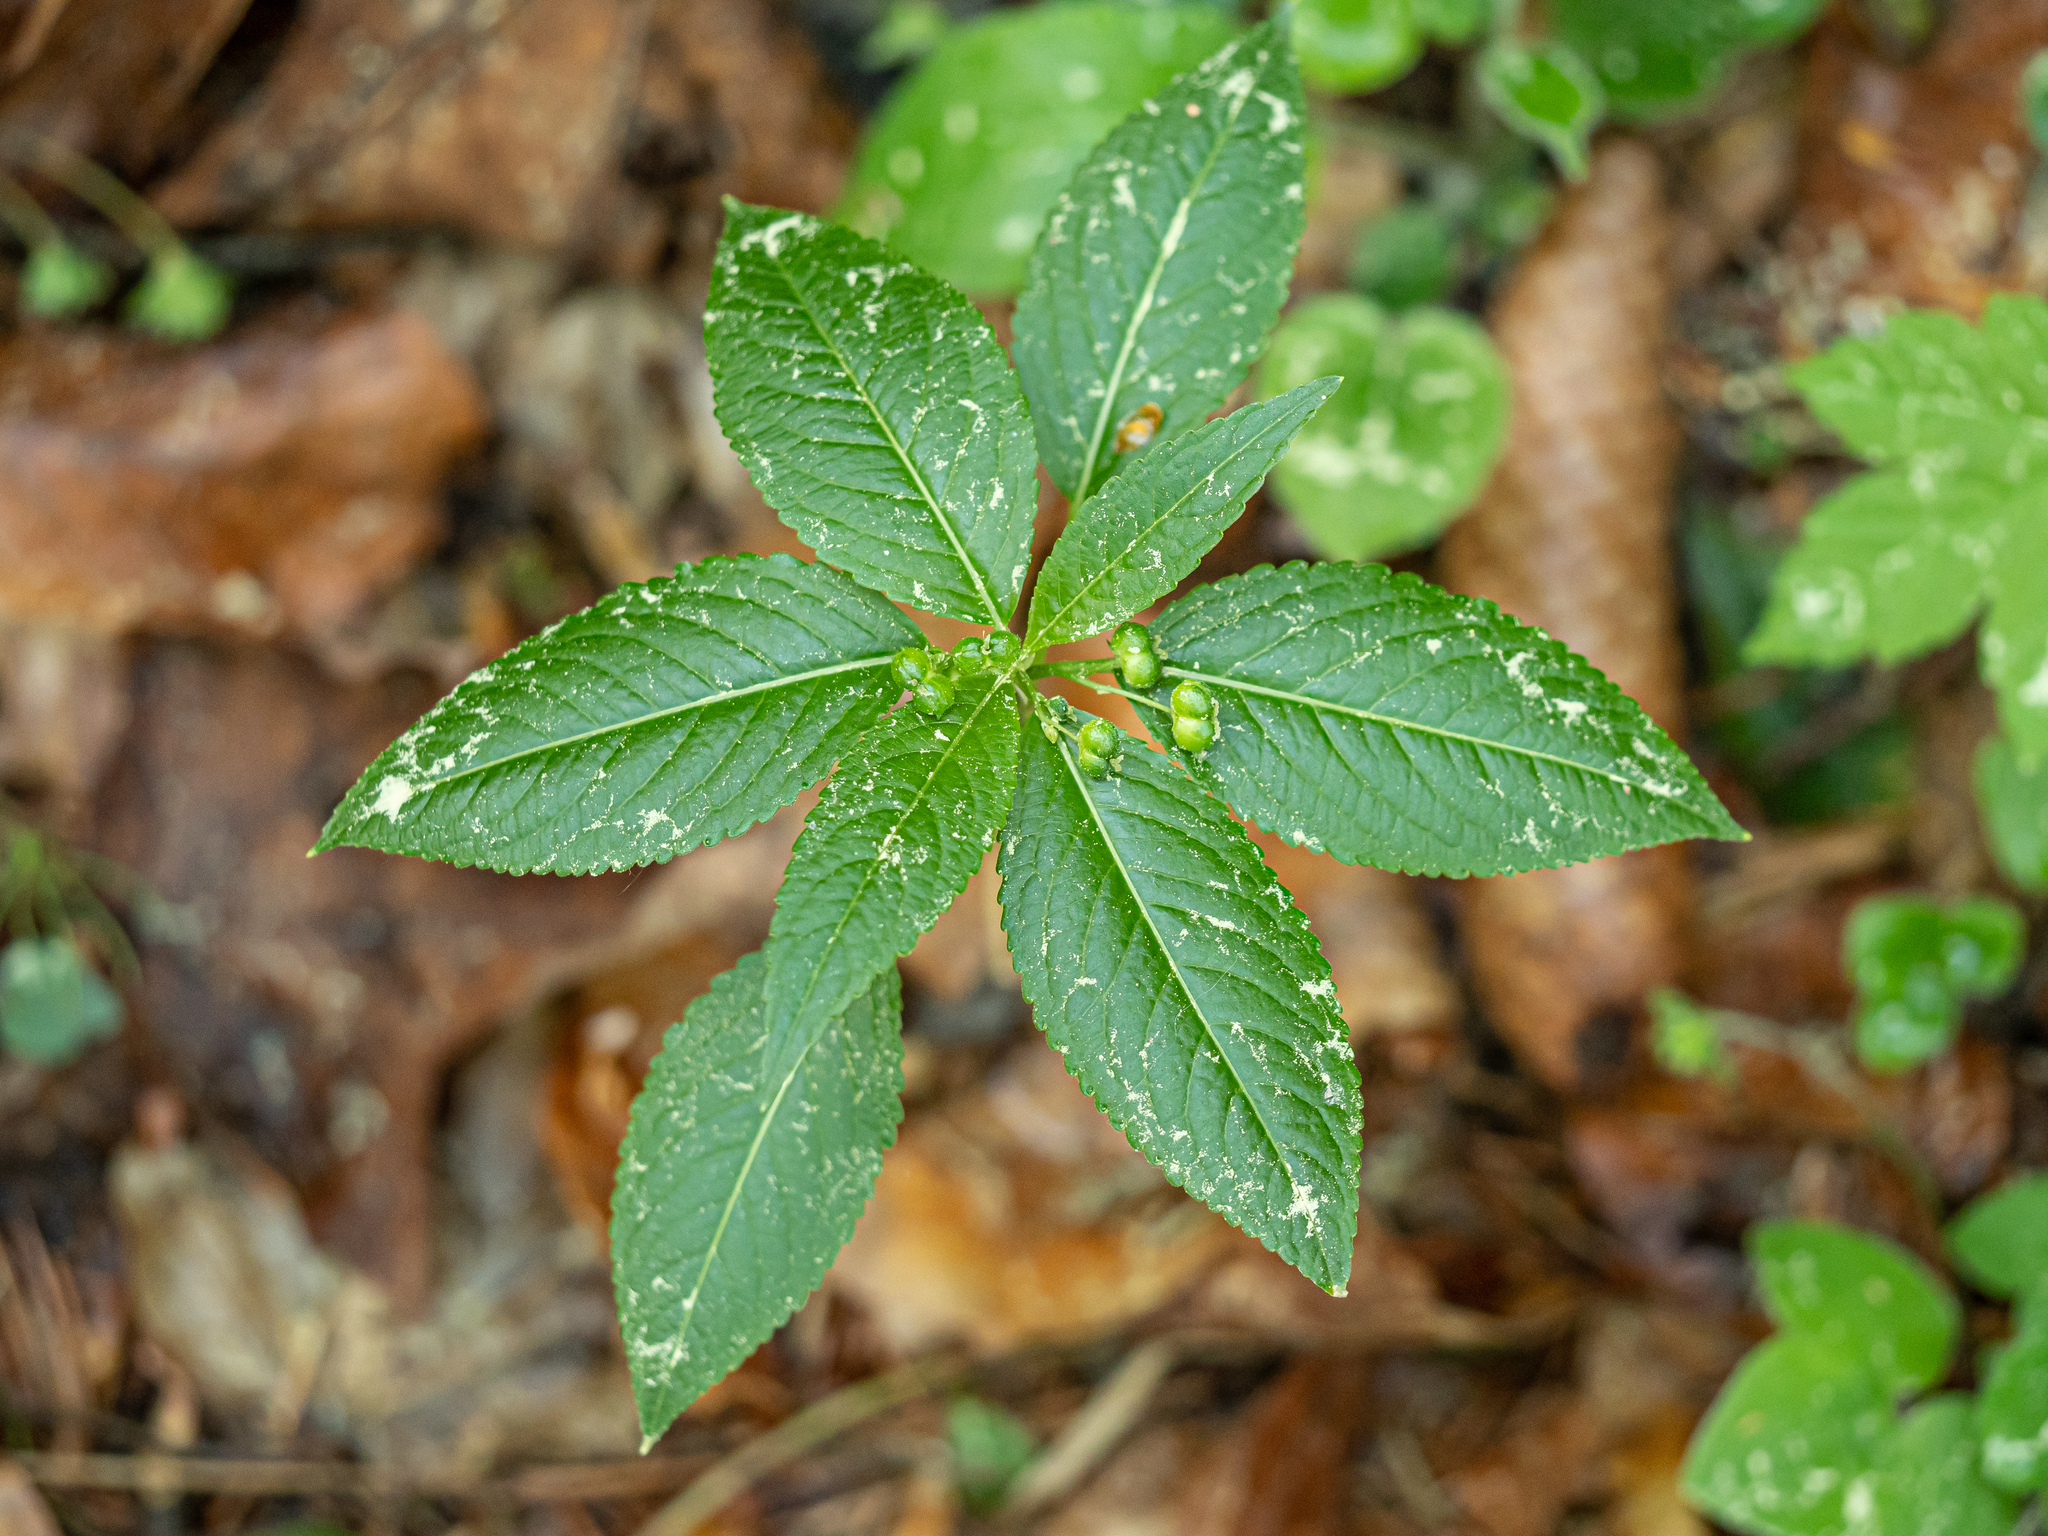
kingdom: Plantae
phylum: Tracheophyta
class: Magnoliopsida
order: Malpighiales
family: Euphorbiaceae
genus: Mercurialis
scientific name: Mercurialis perennis
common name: Dog mercury
